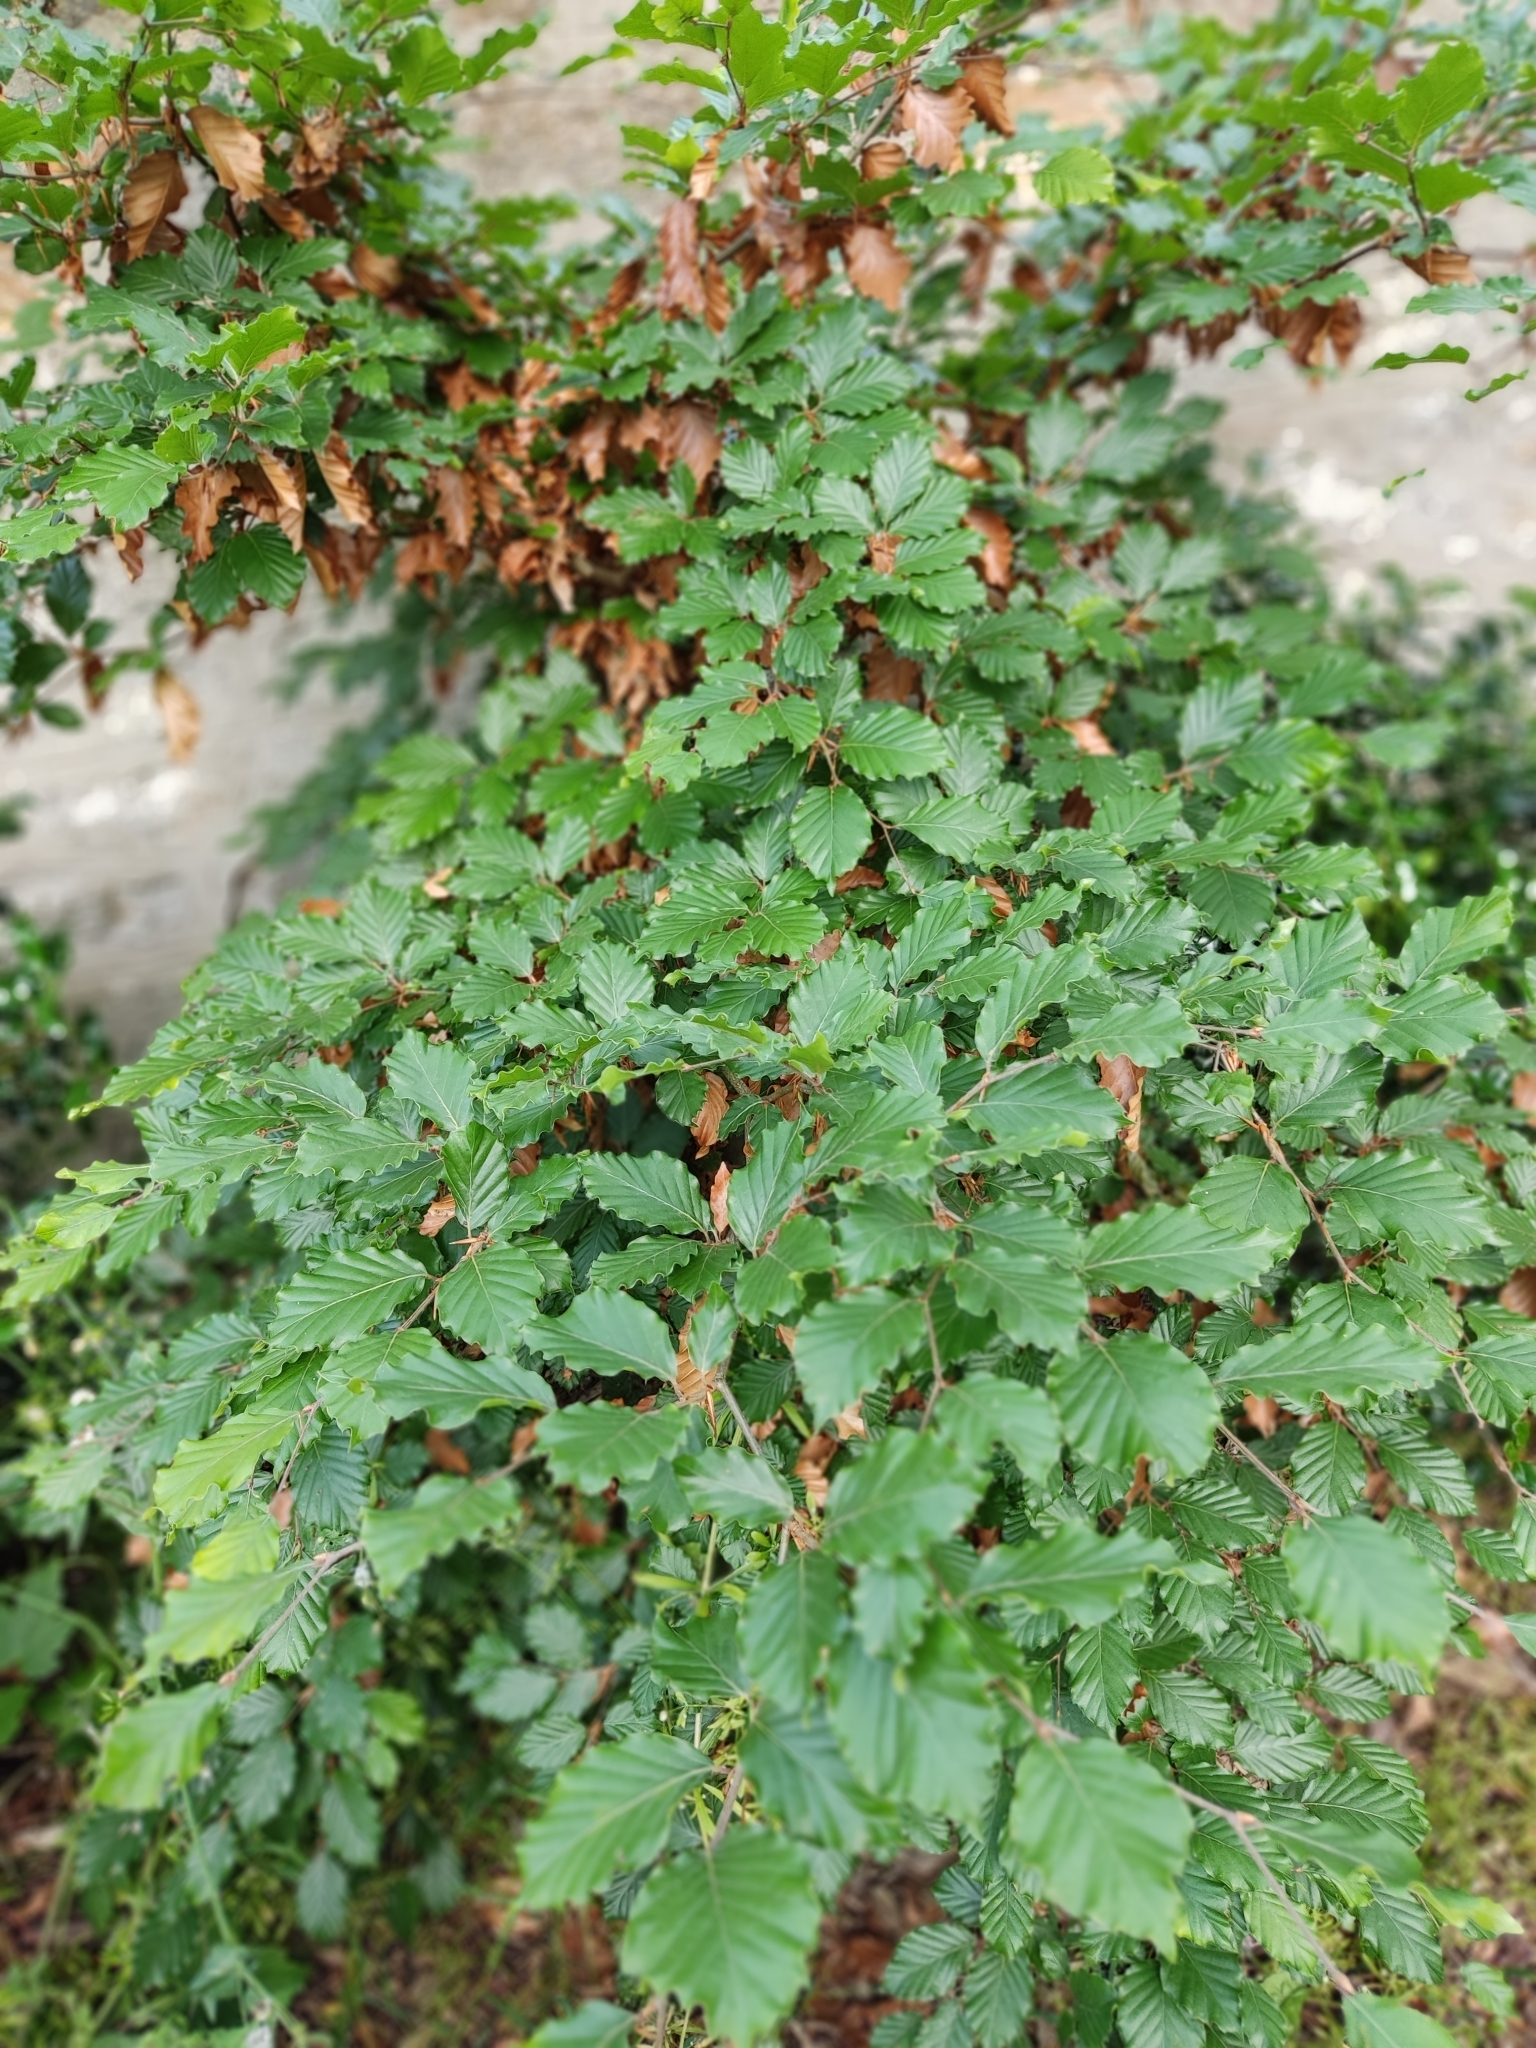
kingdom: Plantae
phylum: Tracheophyta
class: Magnoliopsida
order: Fagales
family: Fagaceae
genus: Fagus
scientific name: Fagus sylvatica
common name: Beech
